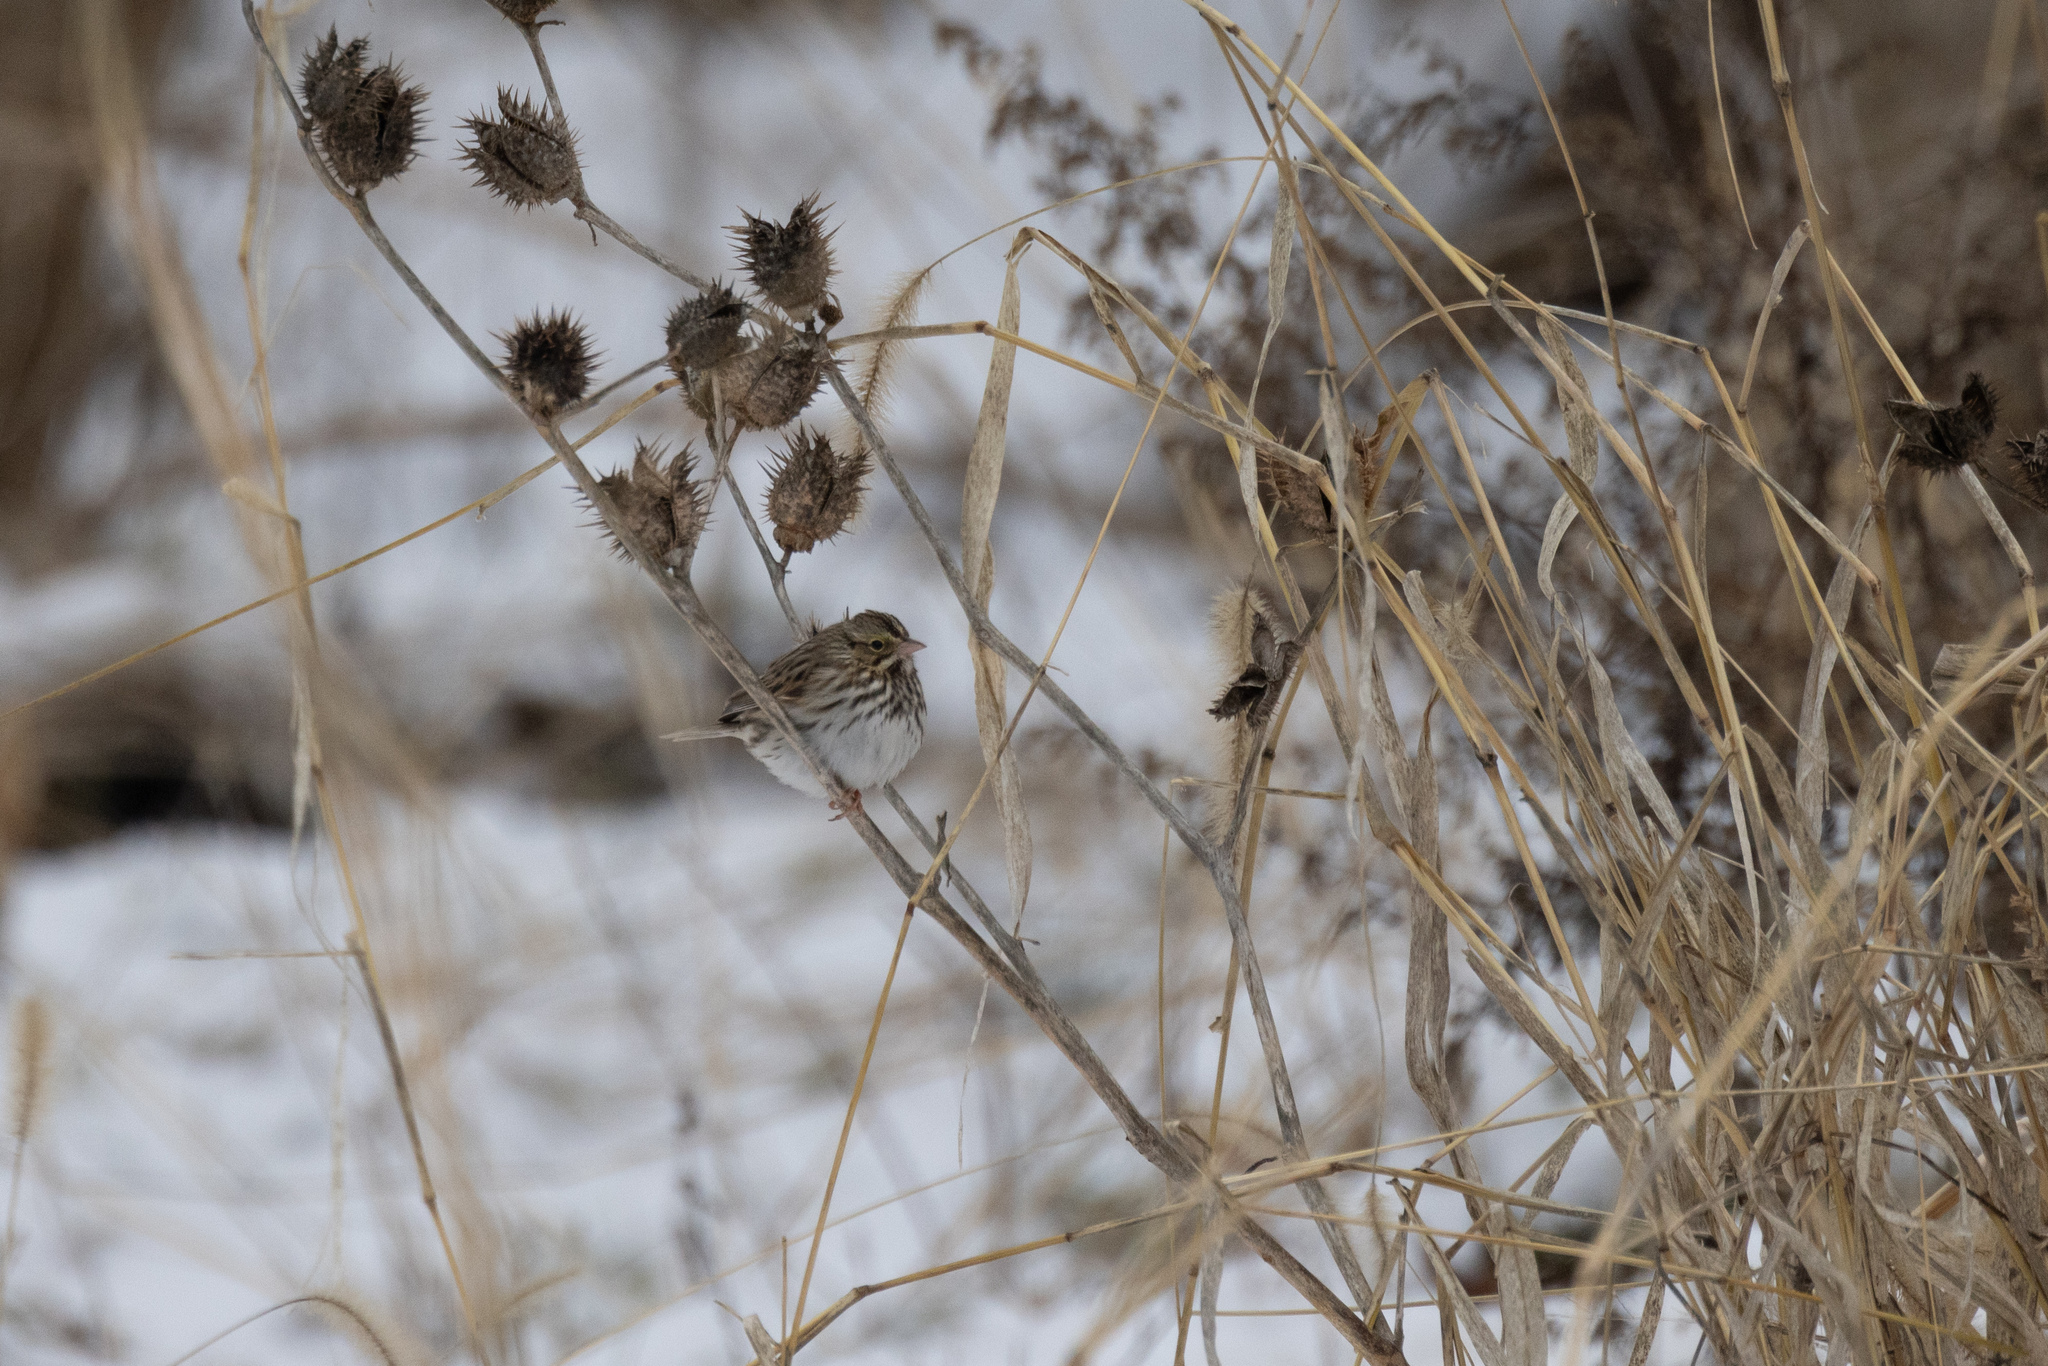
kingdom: Animalia
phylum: Chordata
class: Aves
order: Passeriformes
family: Passerellidae
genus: Passerculus
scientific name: Passerculus sandwichensis
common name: Savannah sparrow
